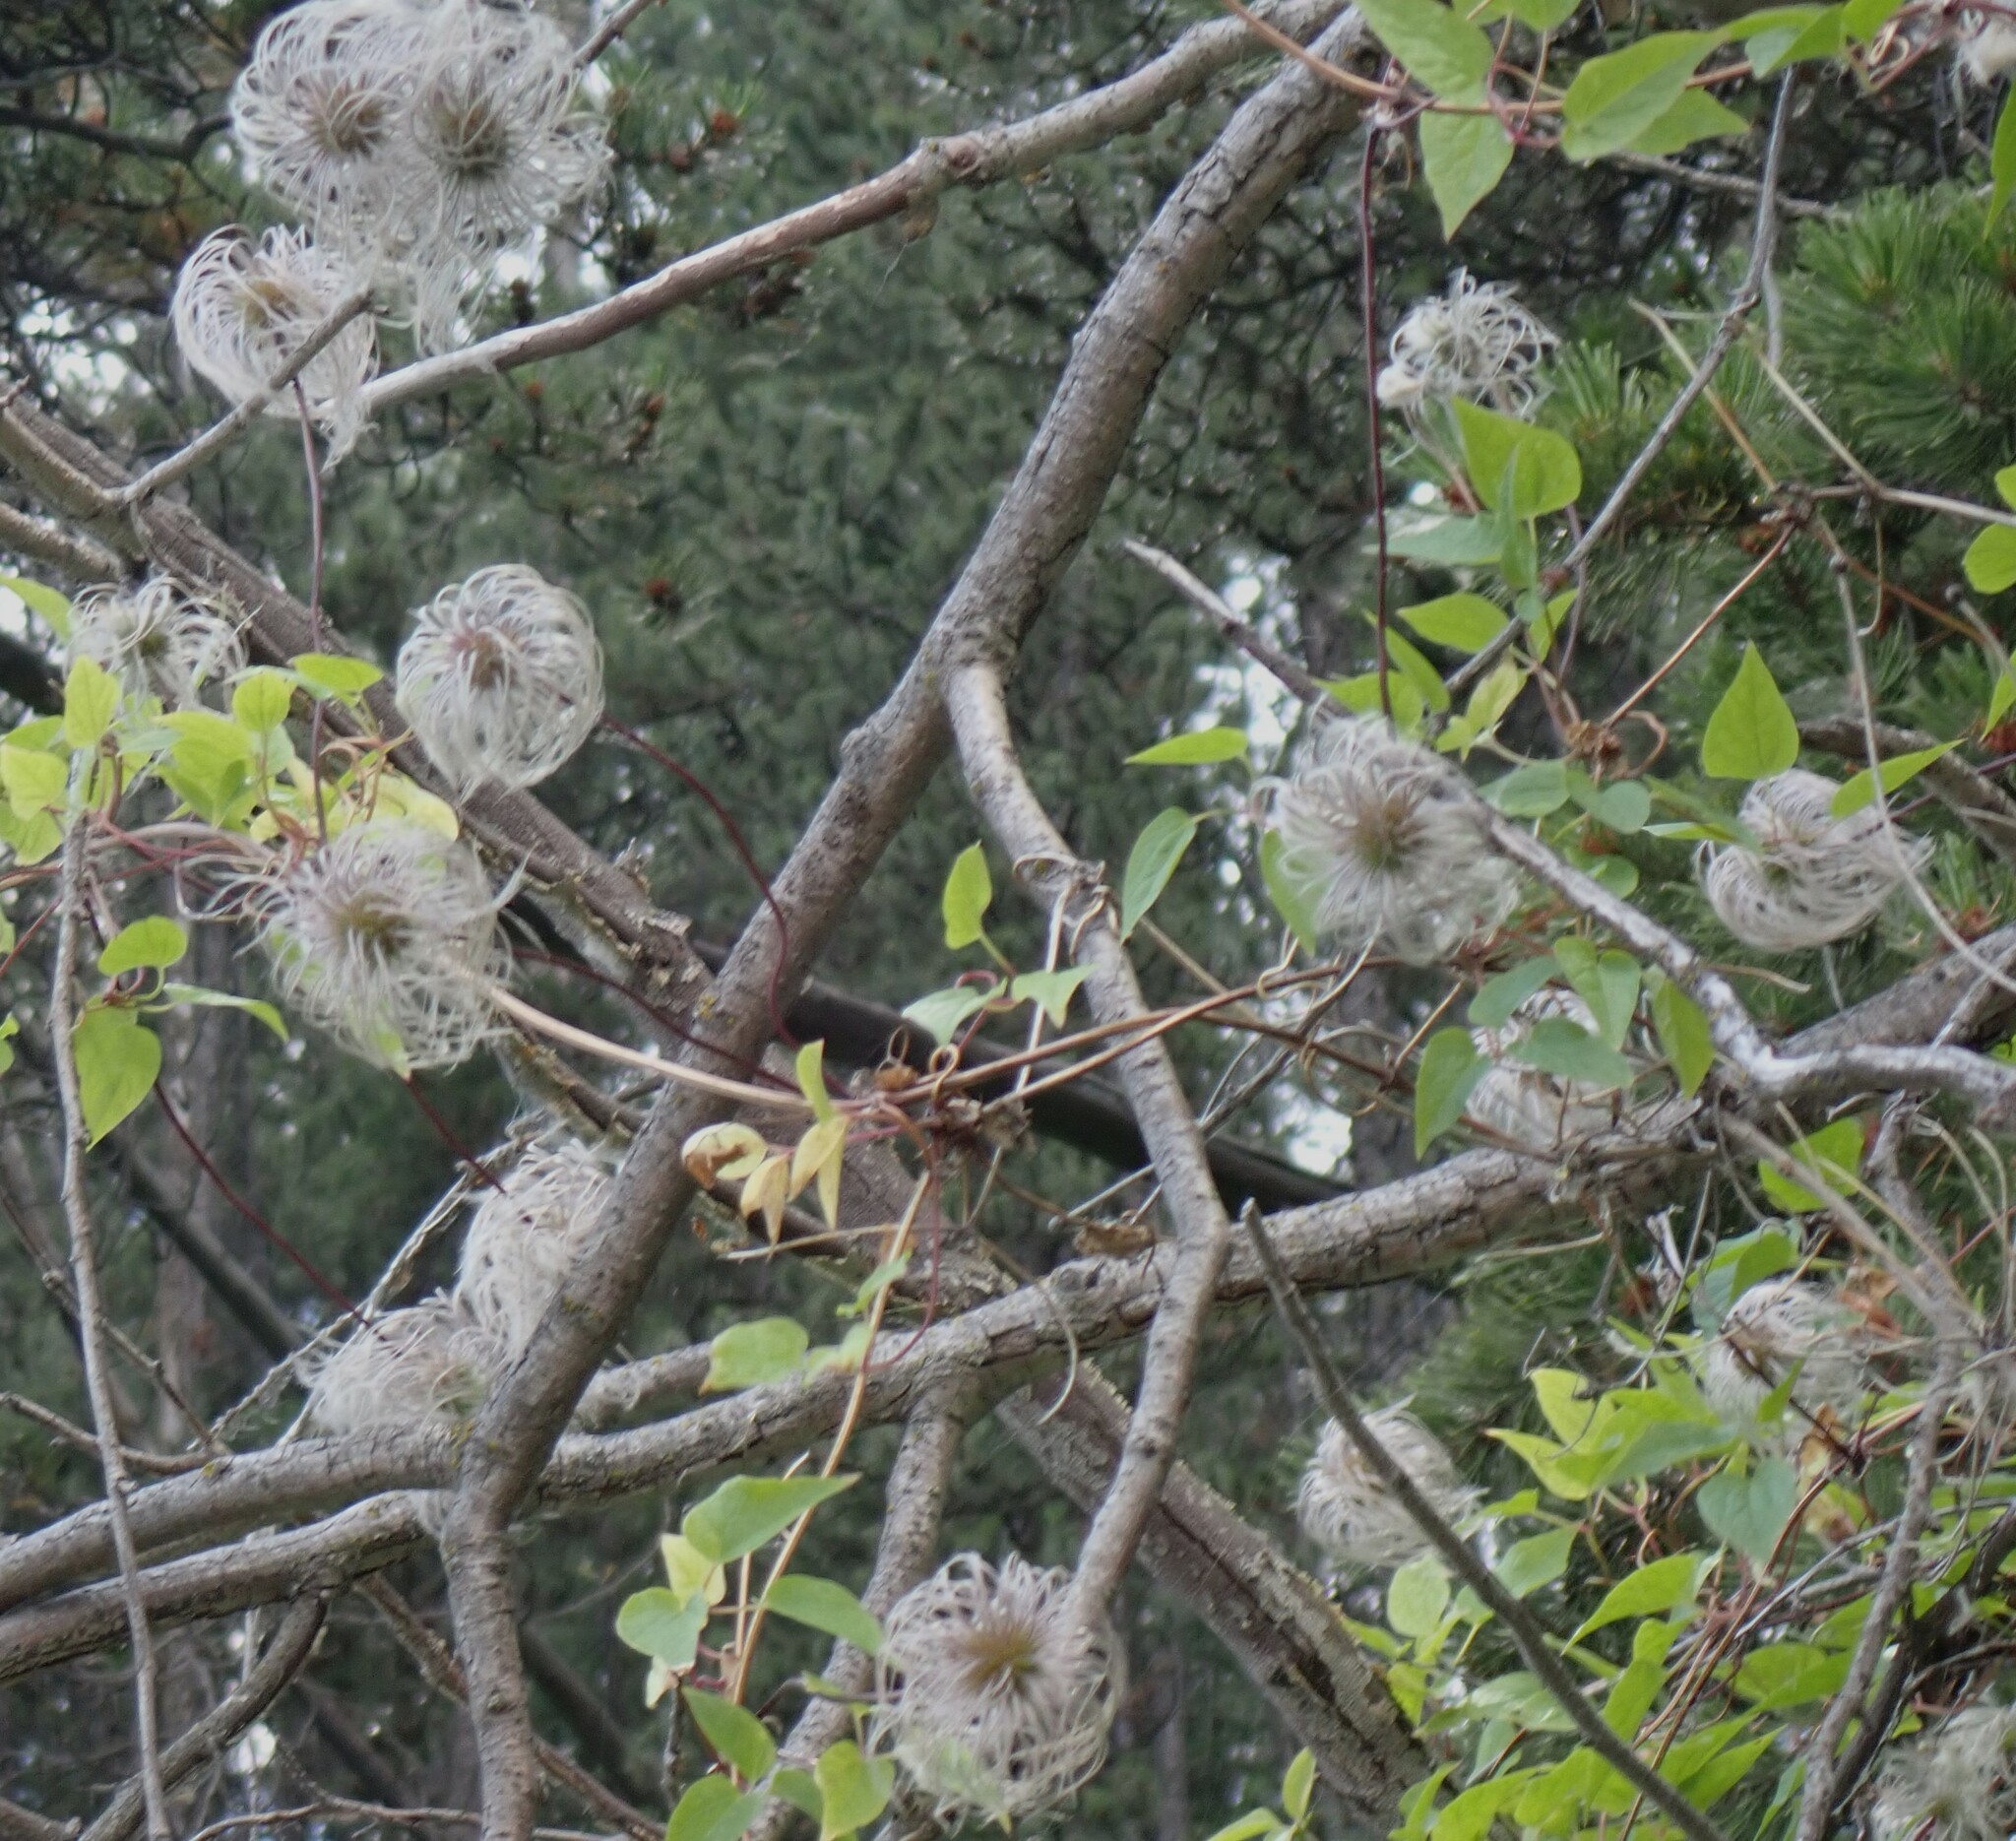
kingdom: Plantae
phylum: Tracheophyta
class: Magnoliopsida
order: Ranunculales
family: Ranunculaceae
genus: Clematis
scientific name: Clematis occidentalis
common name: Purple clematis
